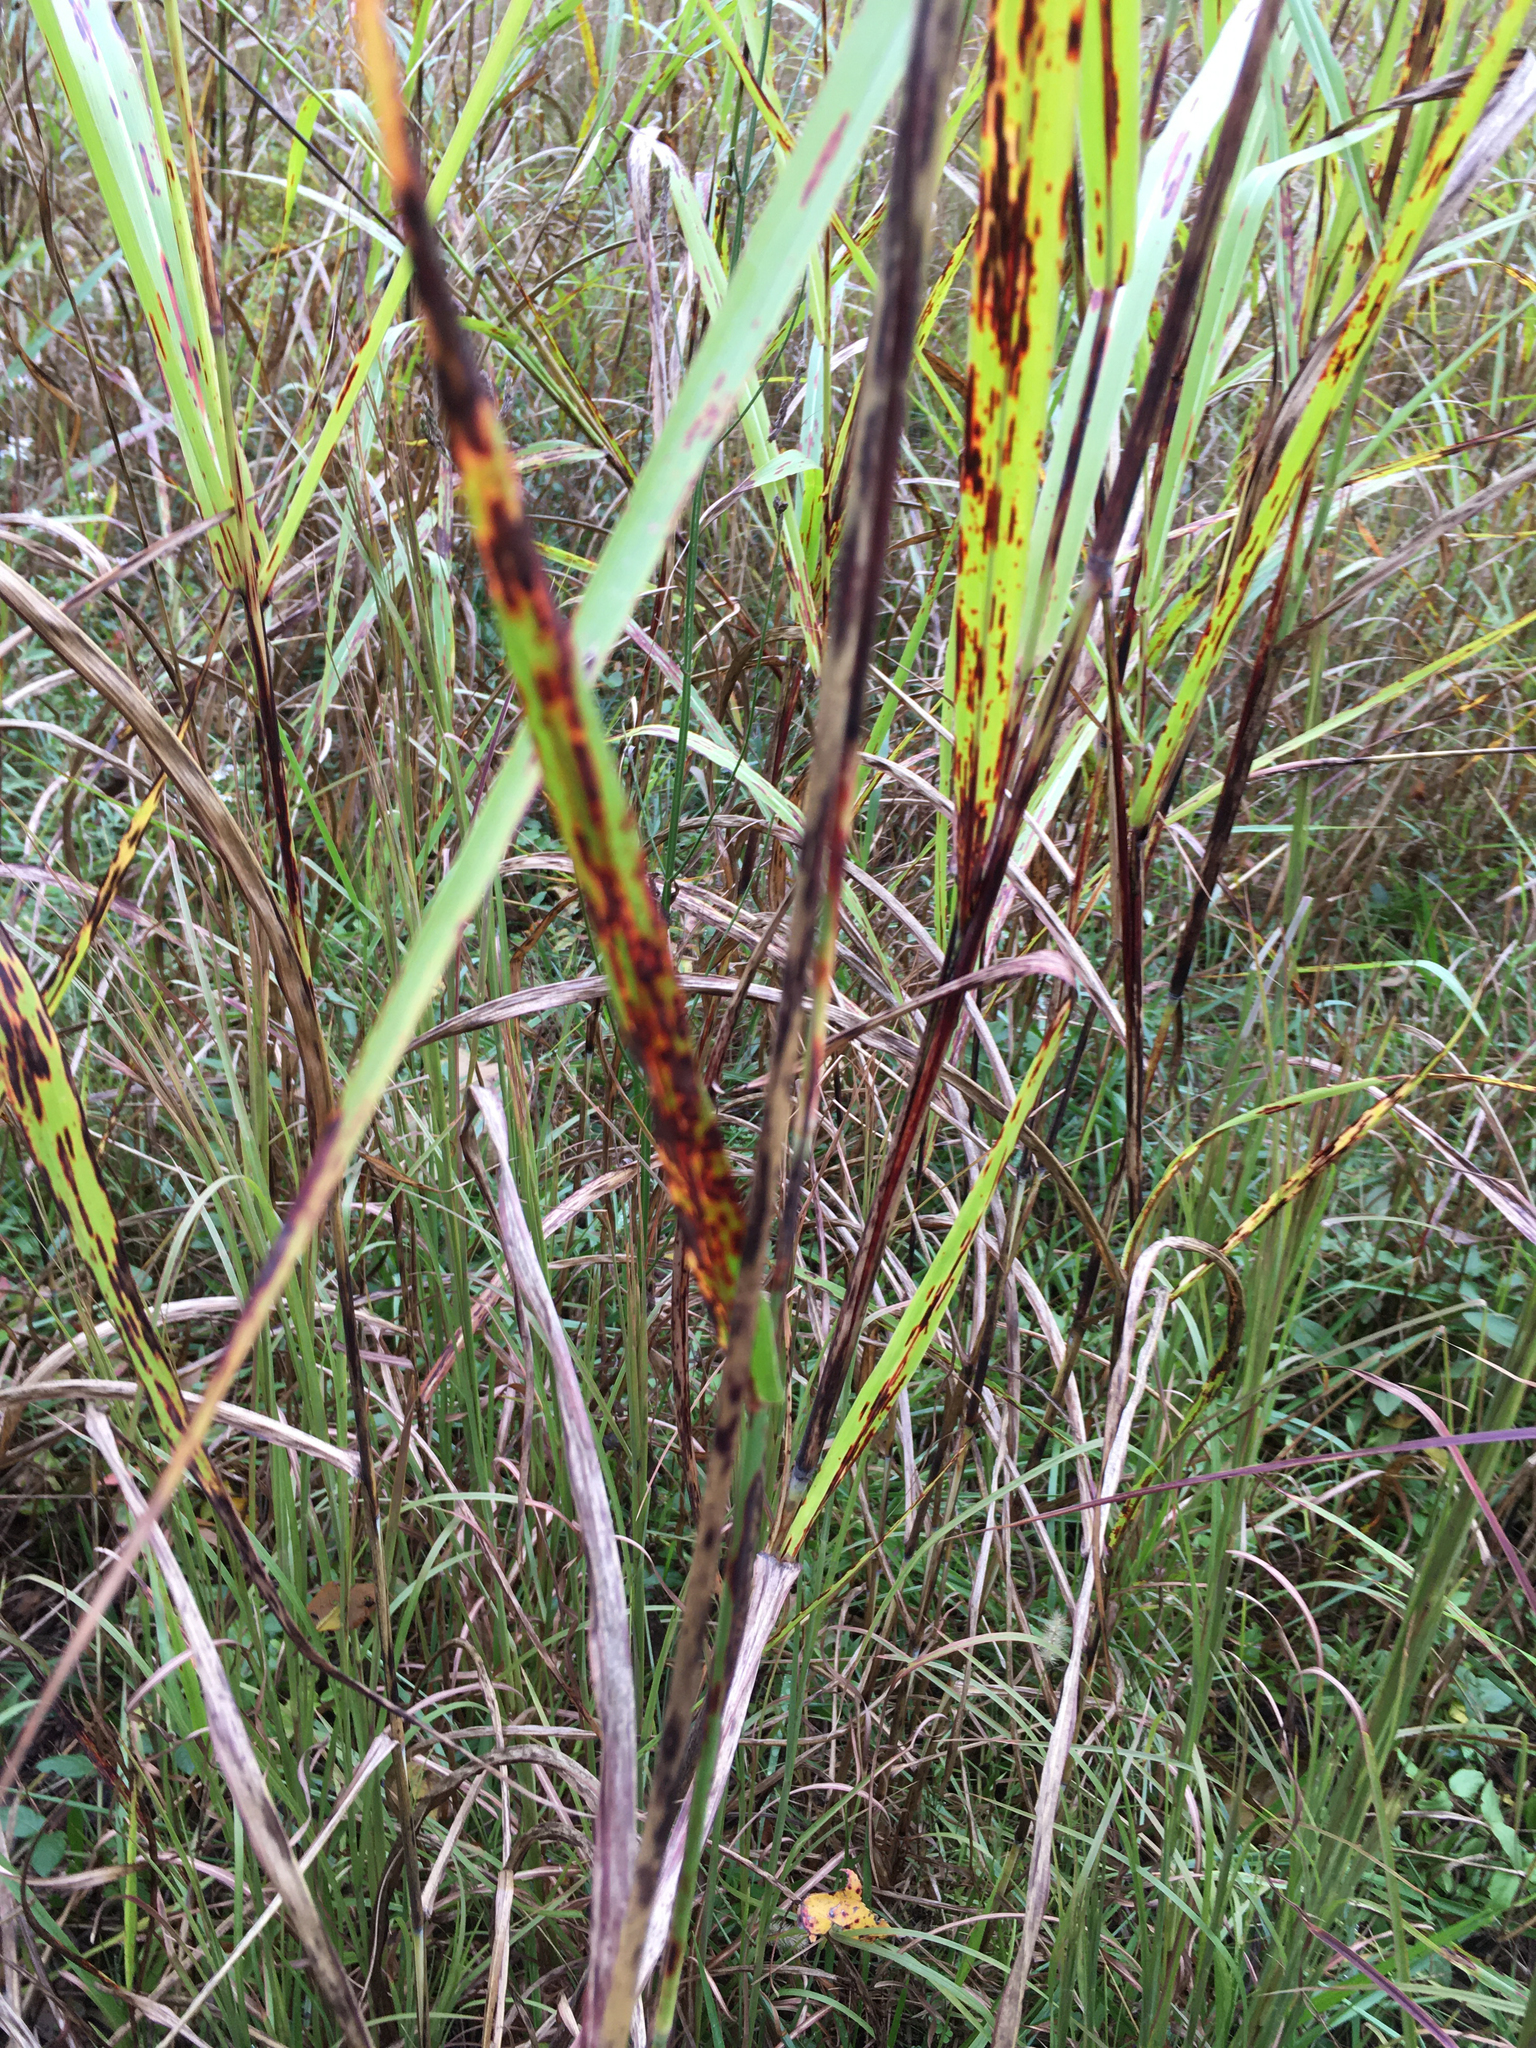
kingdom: Plantae
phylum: Tracheophyta
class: Liliopsida
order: Poales
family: Poaceae
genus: Sorghum
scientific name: Sorghum halepense
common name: Johnson-grass
